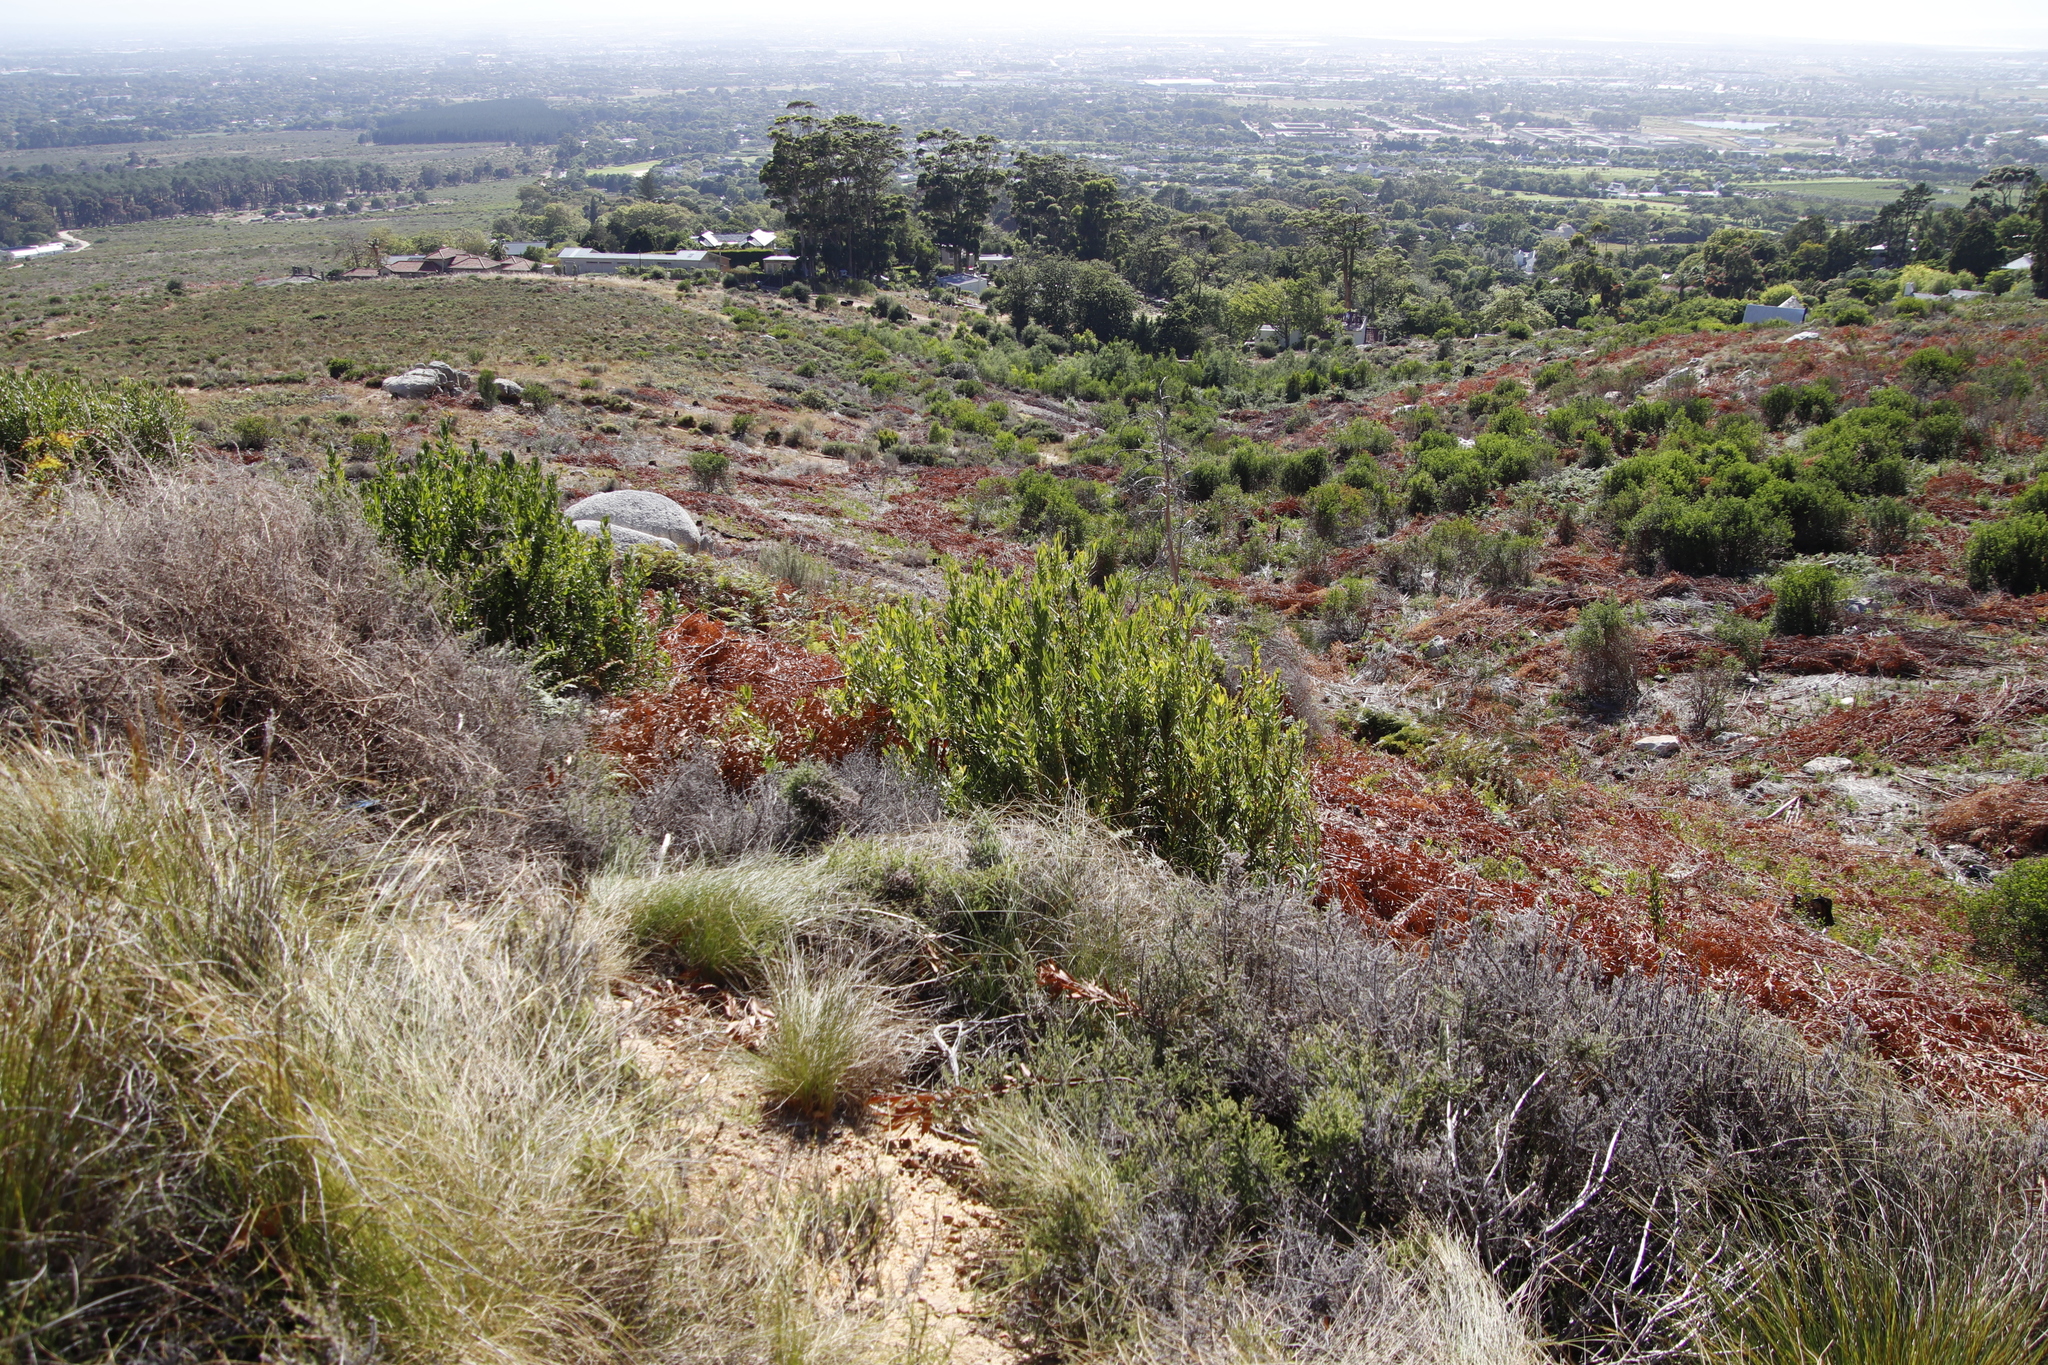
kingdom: Plantae
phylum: Tracheophyta
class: Magnoliopsida
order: Proteales
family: Proteaceae
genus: Protea
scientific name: Protea lepidocarpodendron
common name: Black-bearded protea
